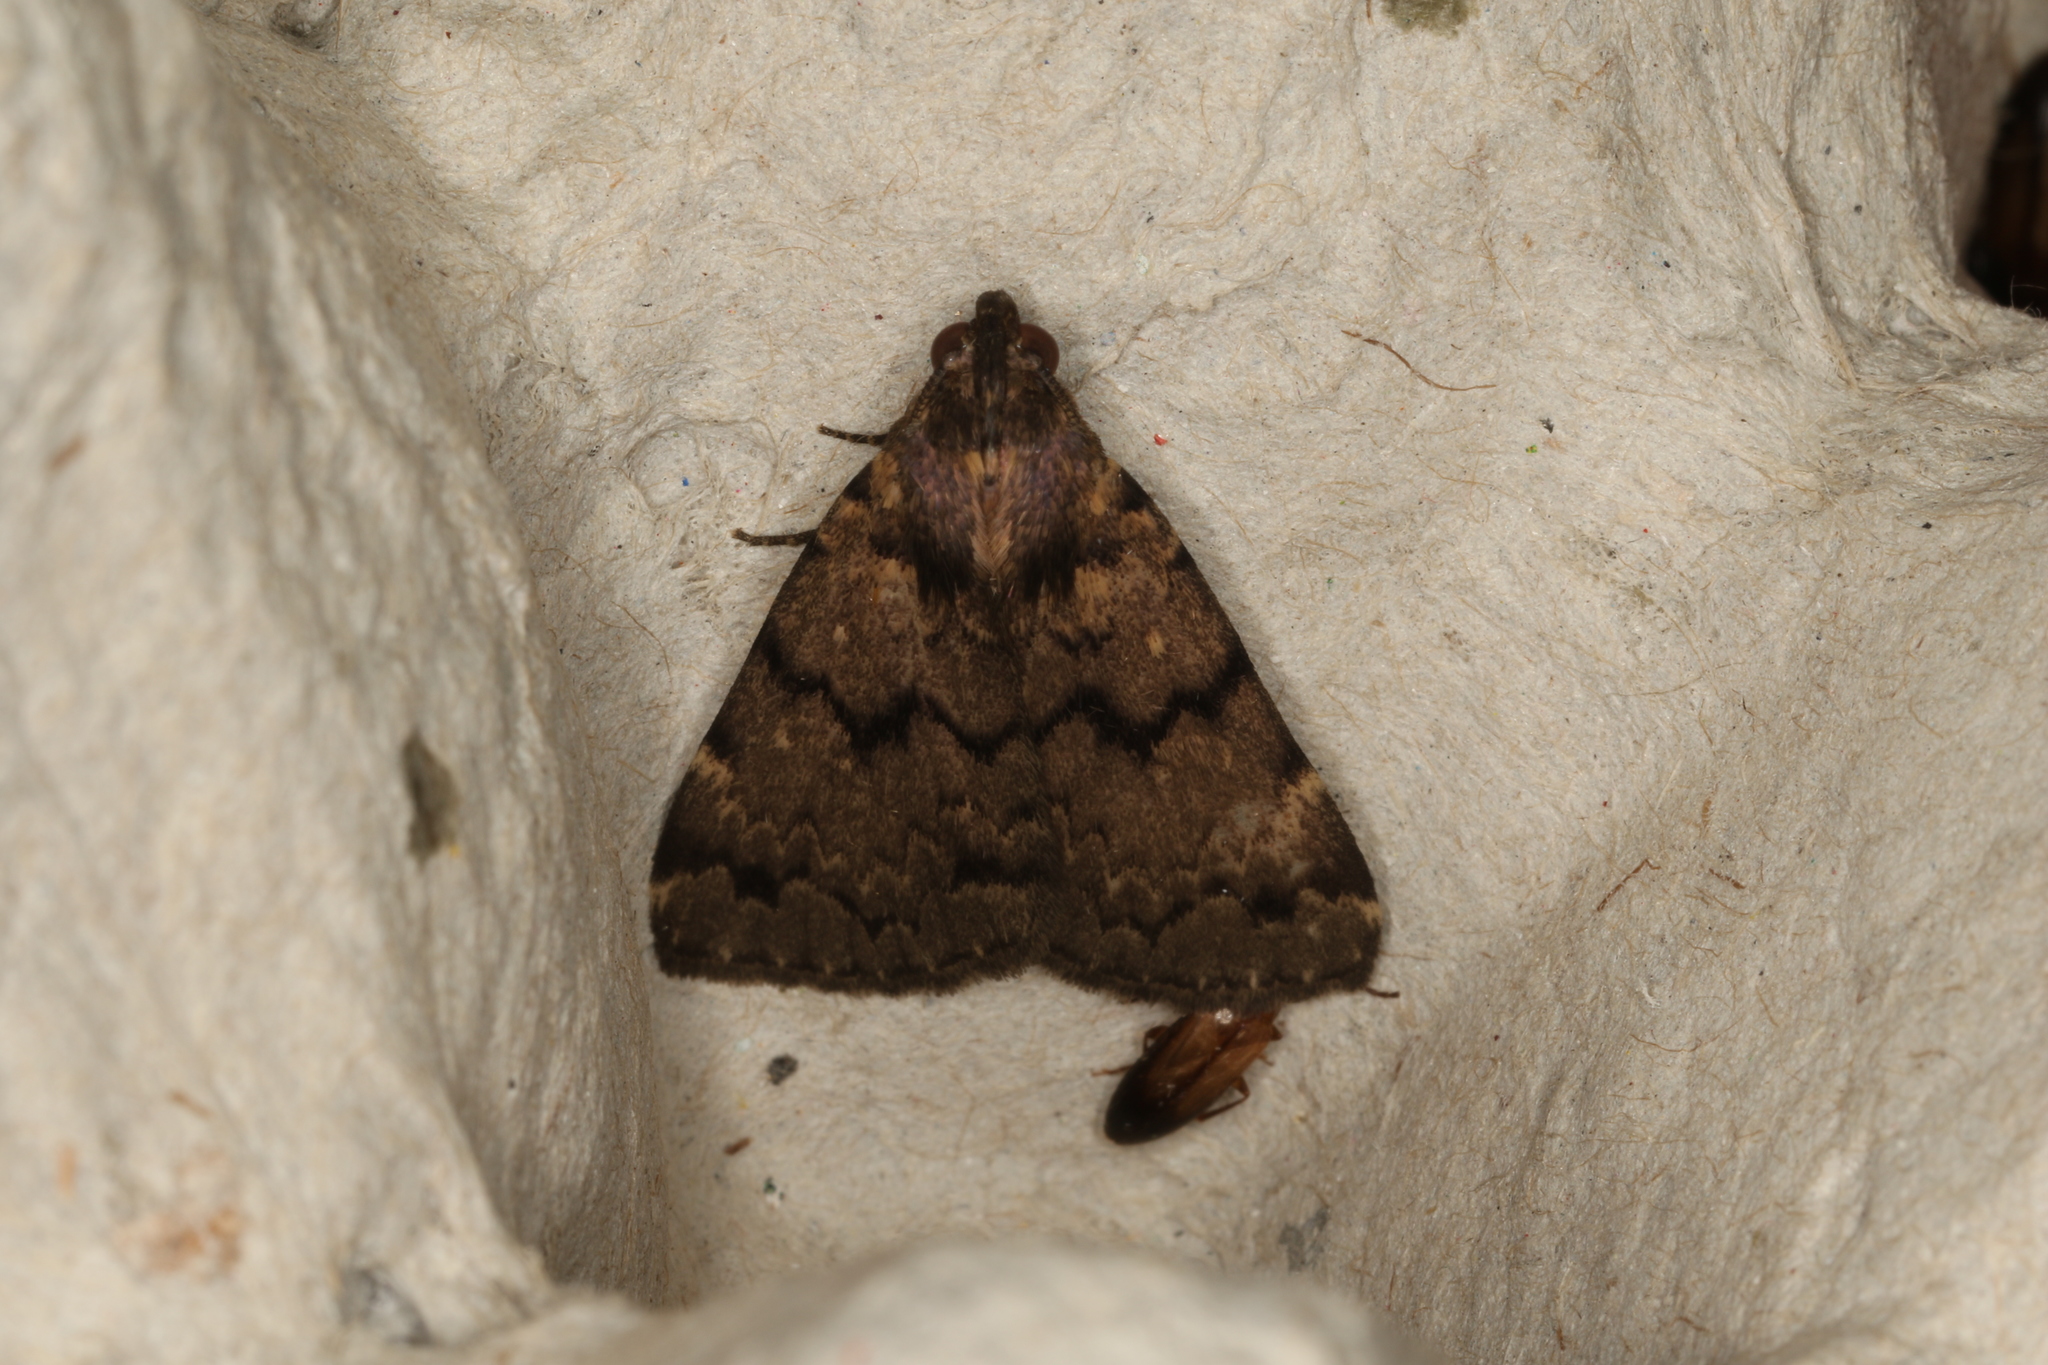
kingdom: Animalia
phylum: Arthropoda
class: Insecta
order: Lepidoptera
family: Erebidae
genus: Mormoscopa
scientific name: Mormoscopa phricozona
